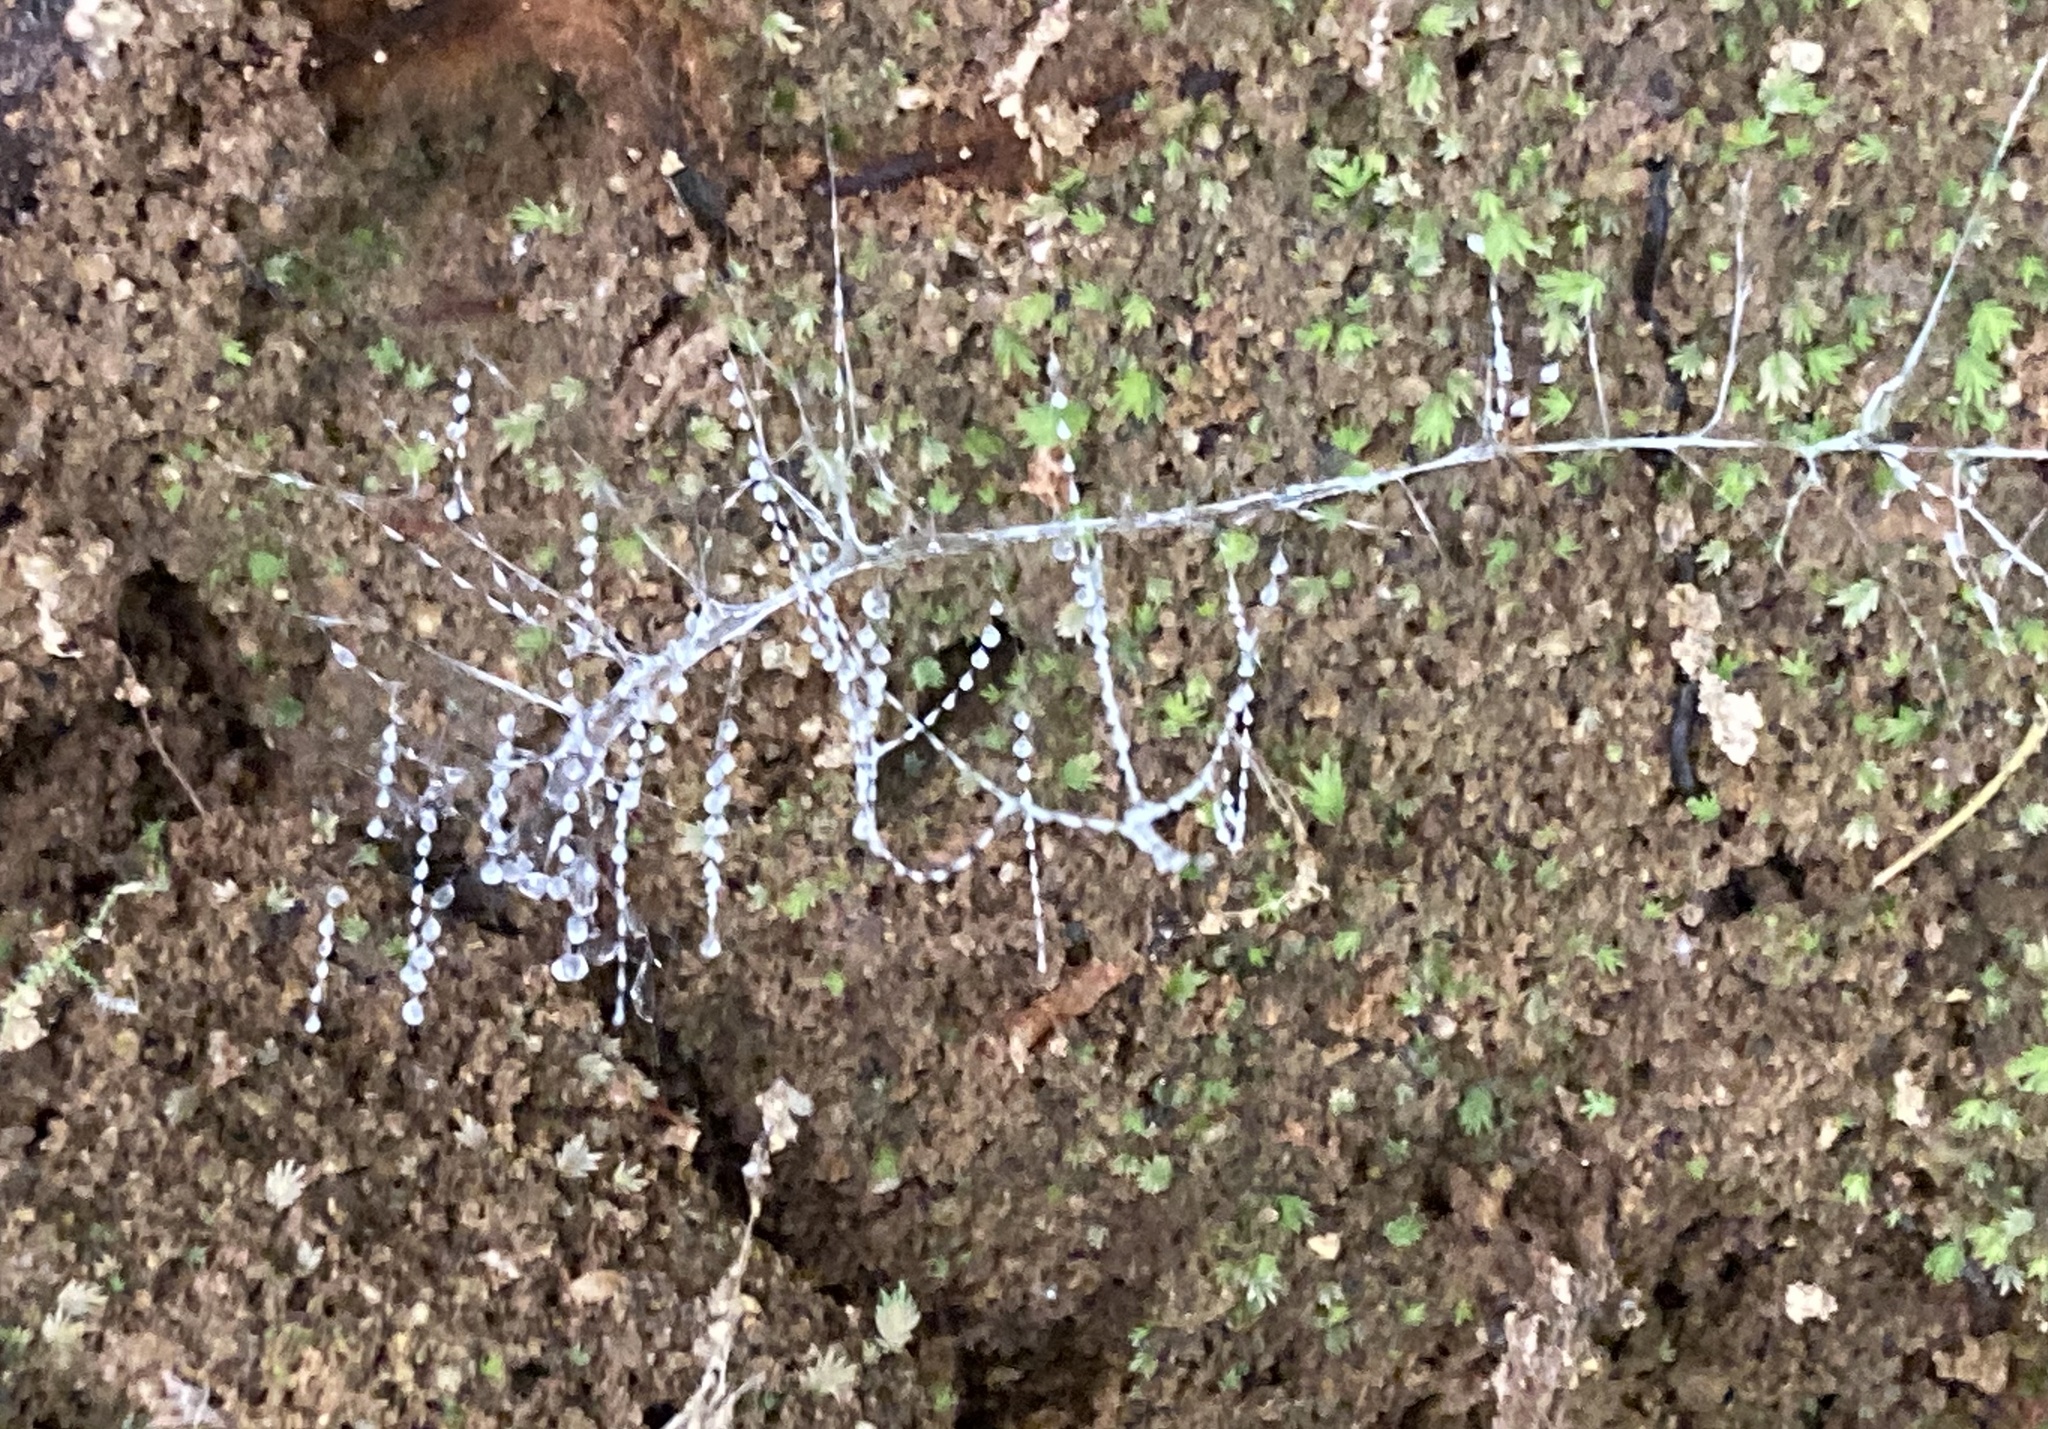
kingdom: Animalia
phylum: Arthropoda
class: Insecta
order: Diptera
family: Keroplatidae
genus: Arachnocampa
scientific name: Arachnocampa luminosa
